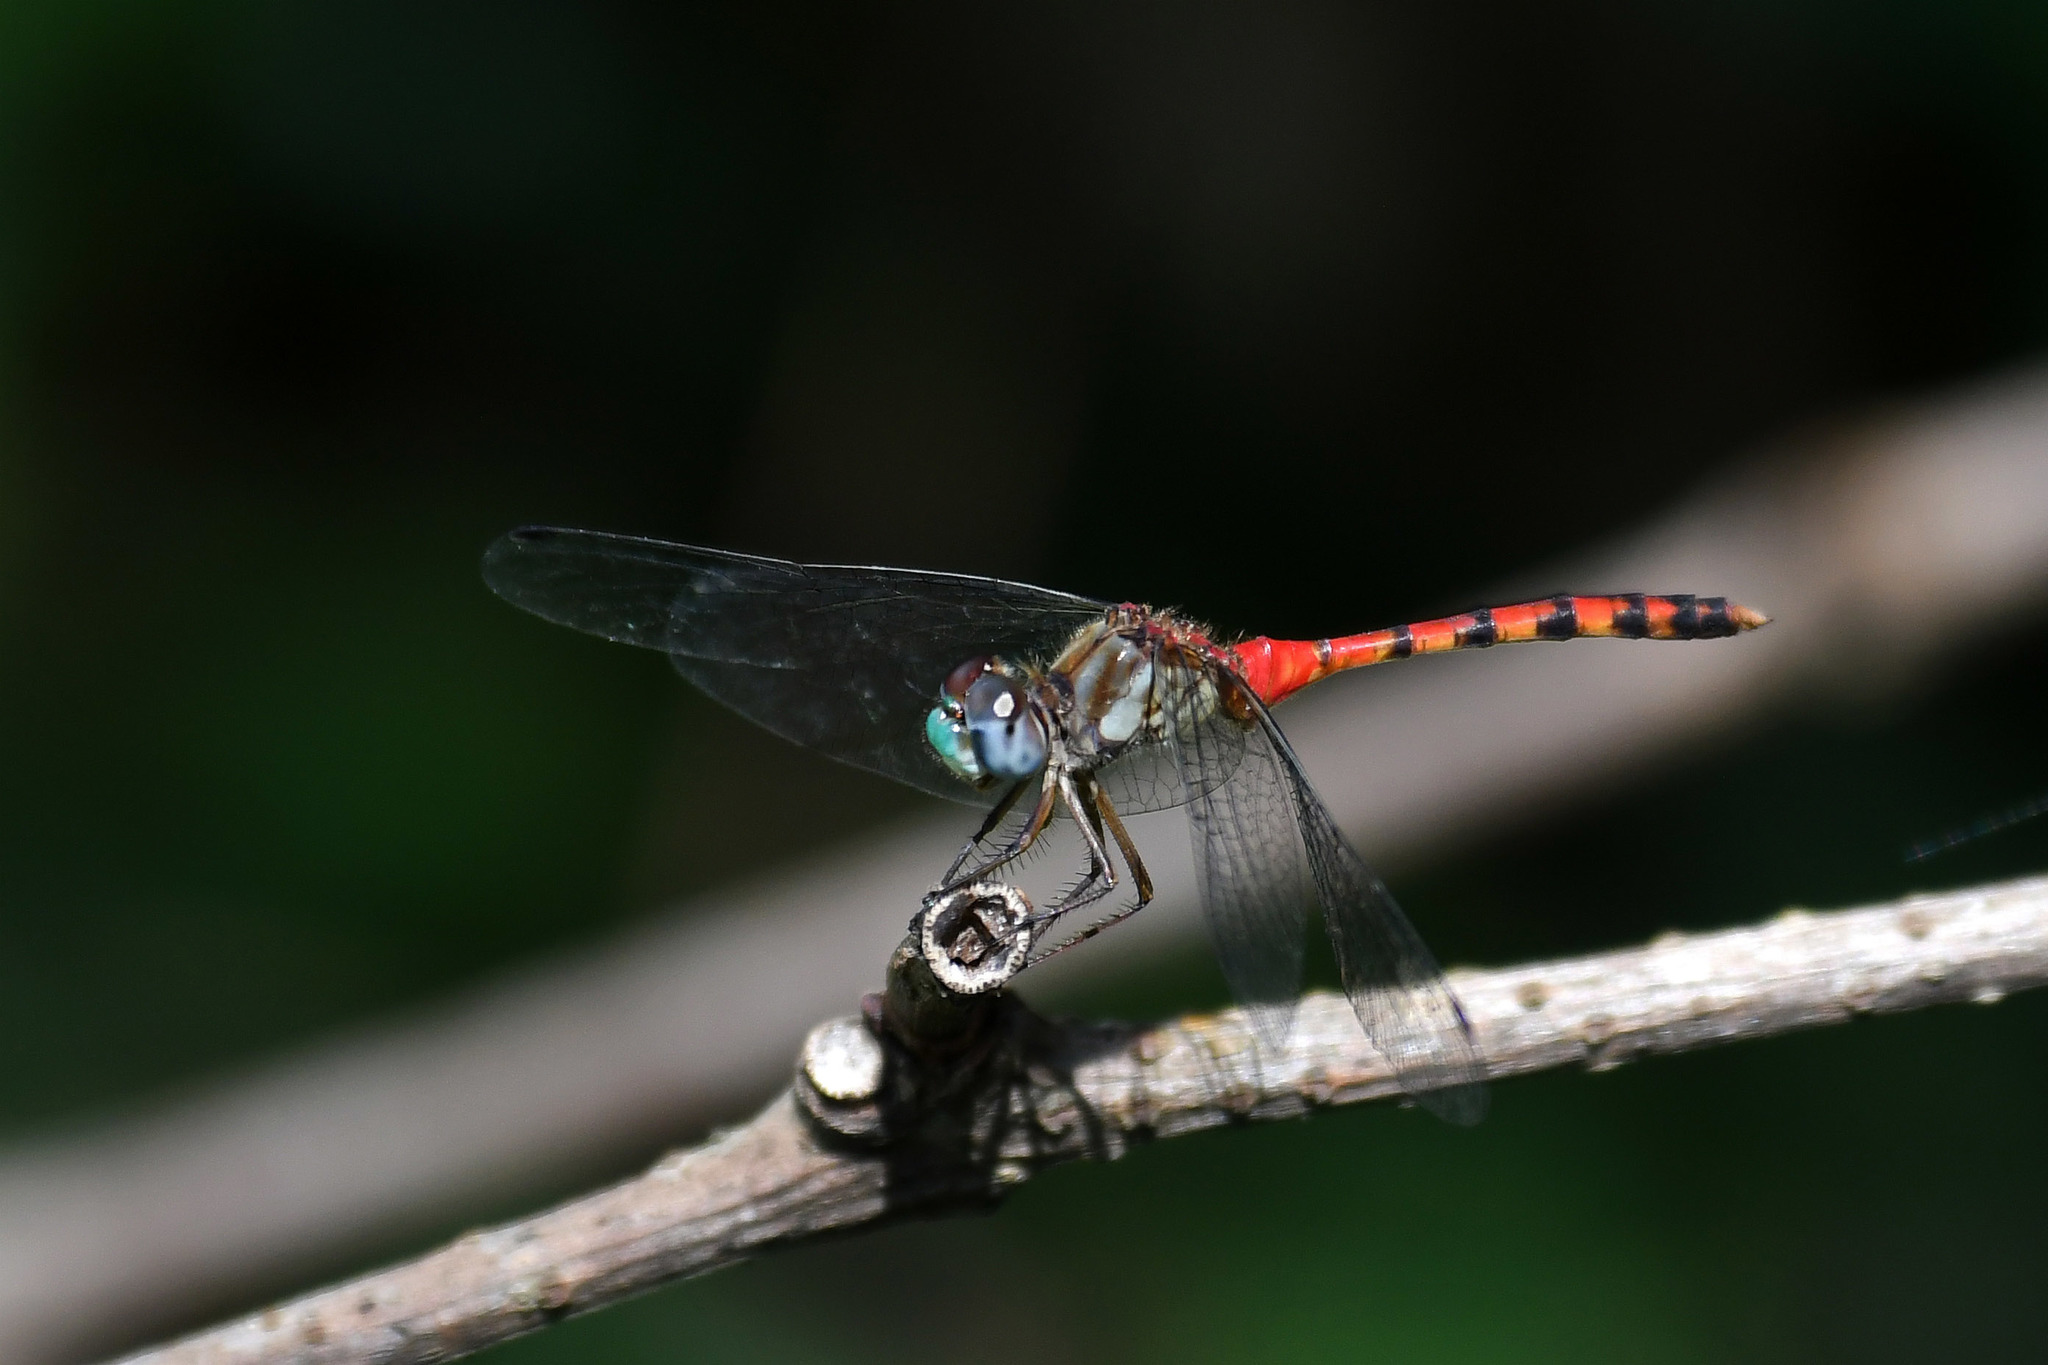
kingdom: Animalia
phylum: Arthropoda
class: Insecta
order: Odonata
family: Libellulidae
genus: Sympetrum
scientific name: Sympetrum ambiguum
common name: Blue-faced meadowhawk
